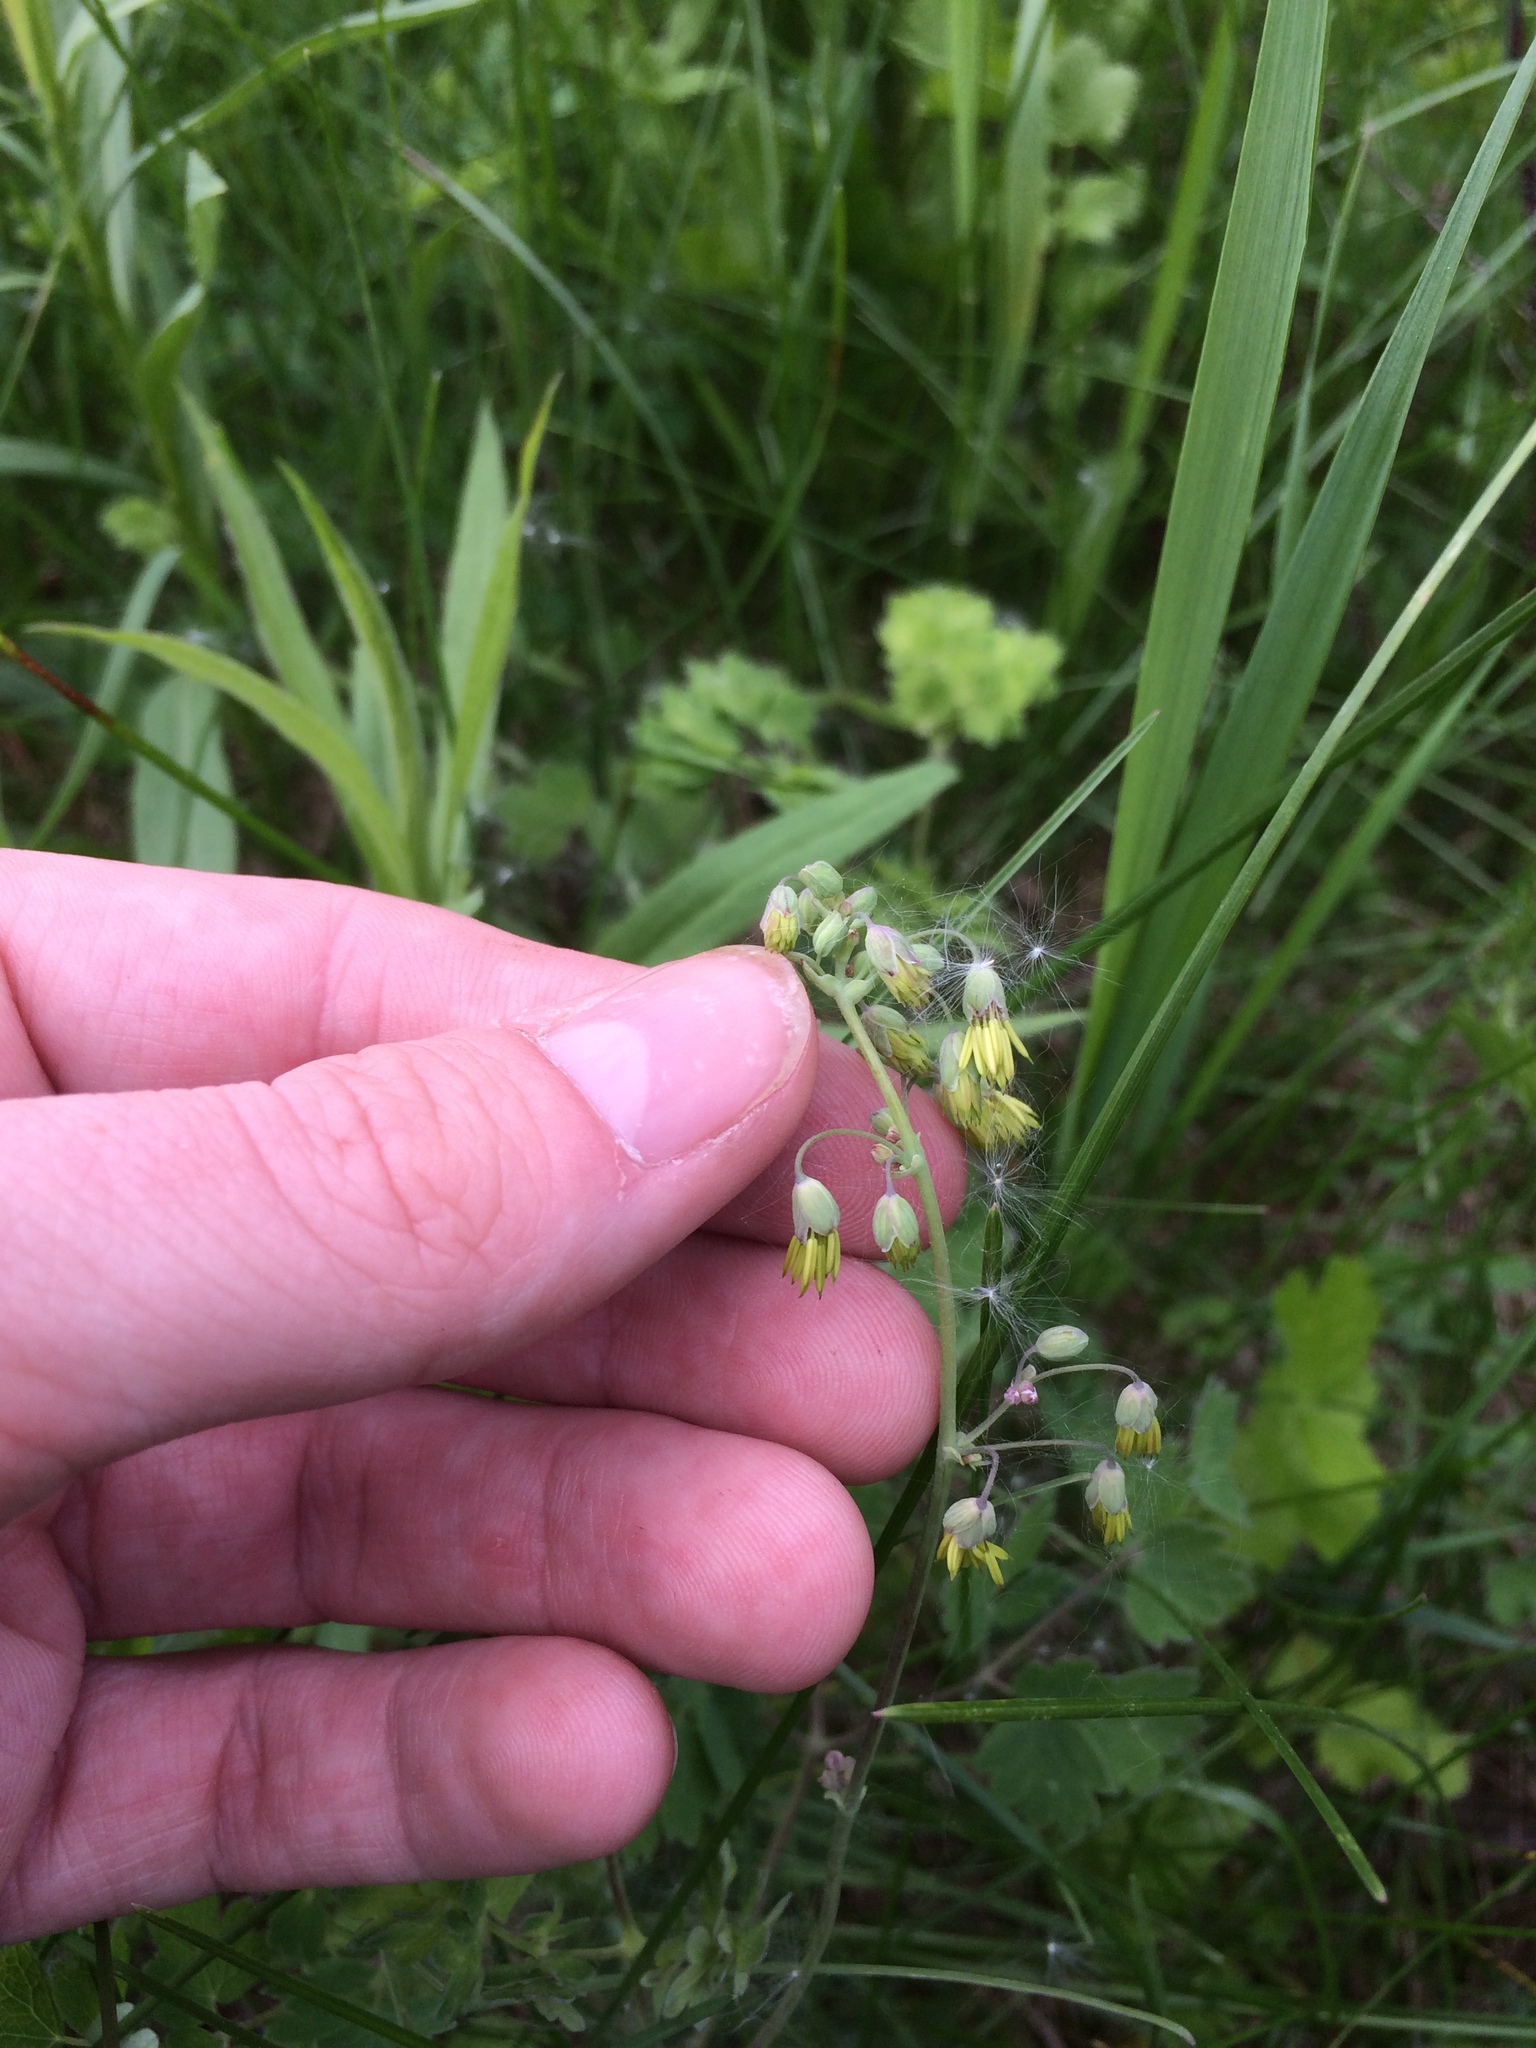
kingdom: Plantae
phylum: Tracheophyta
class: Magnoliopsida
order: Ranunculales
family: Ranunculaceae
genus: Thalictrum
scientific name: Thalictrum dioicum
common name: Early meadow-rue
